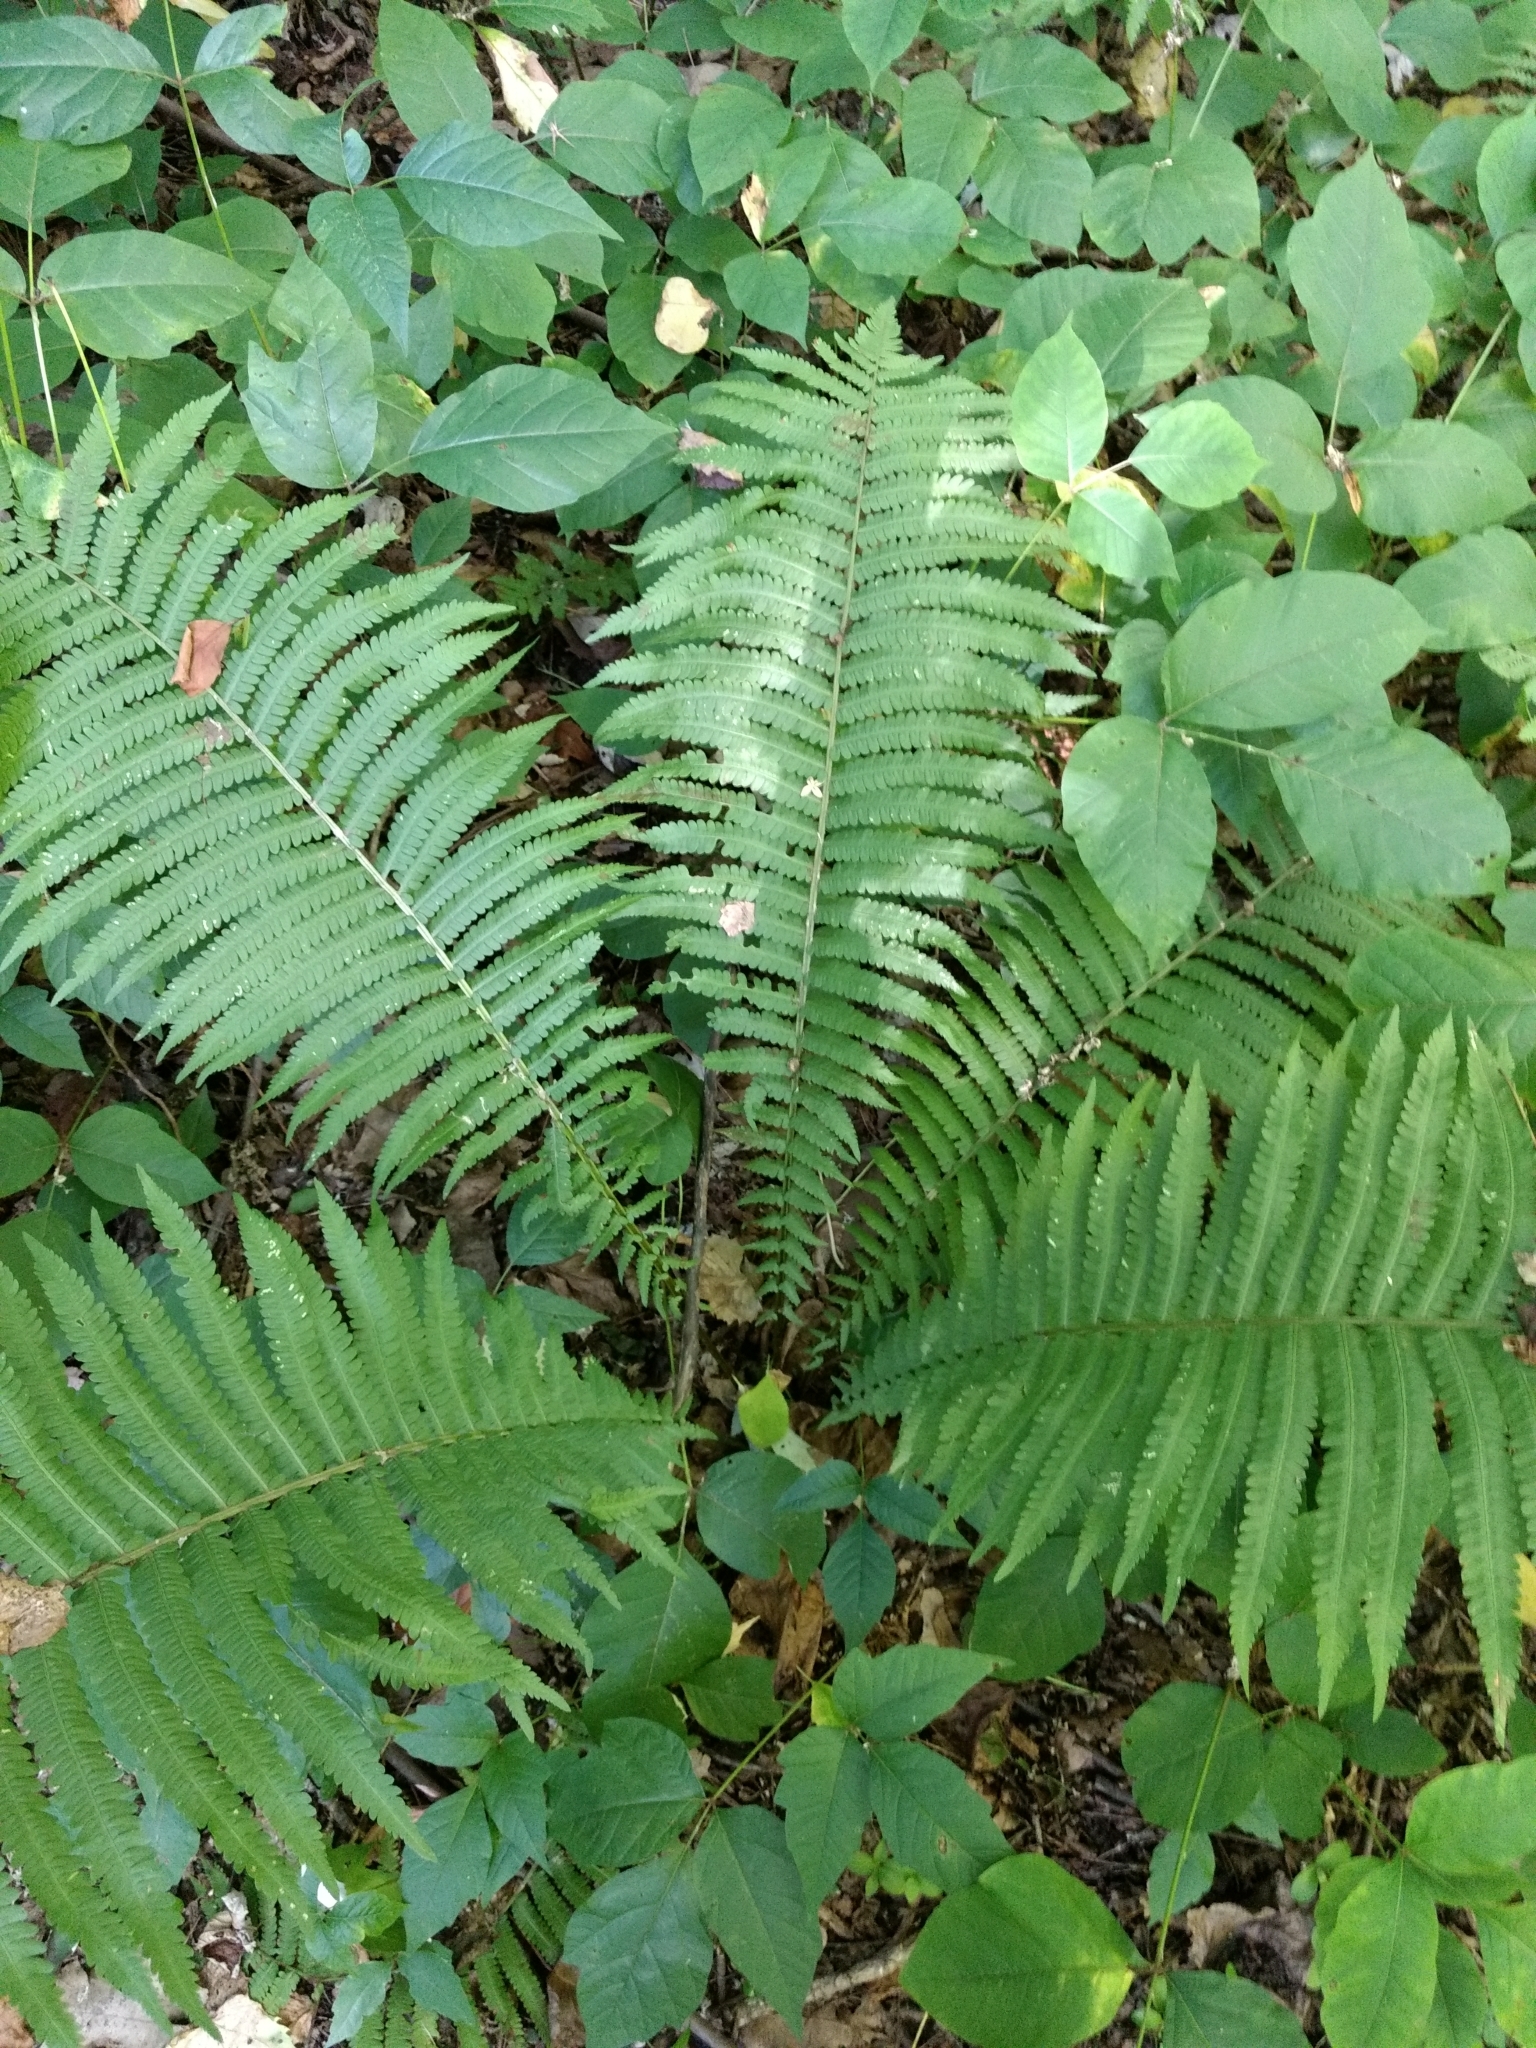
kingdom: Plantae
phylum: Tracheophyta
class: Polypodiopsida
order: Polypodiales
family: Onocleaceae
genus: Matteuccia
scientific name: Matteuccia struthiopteris
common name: Ostrich fern
